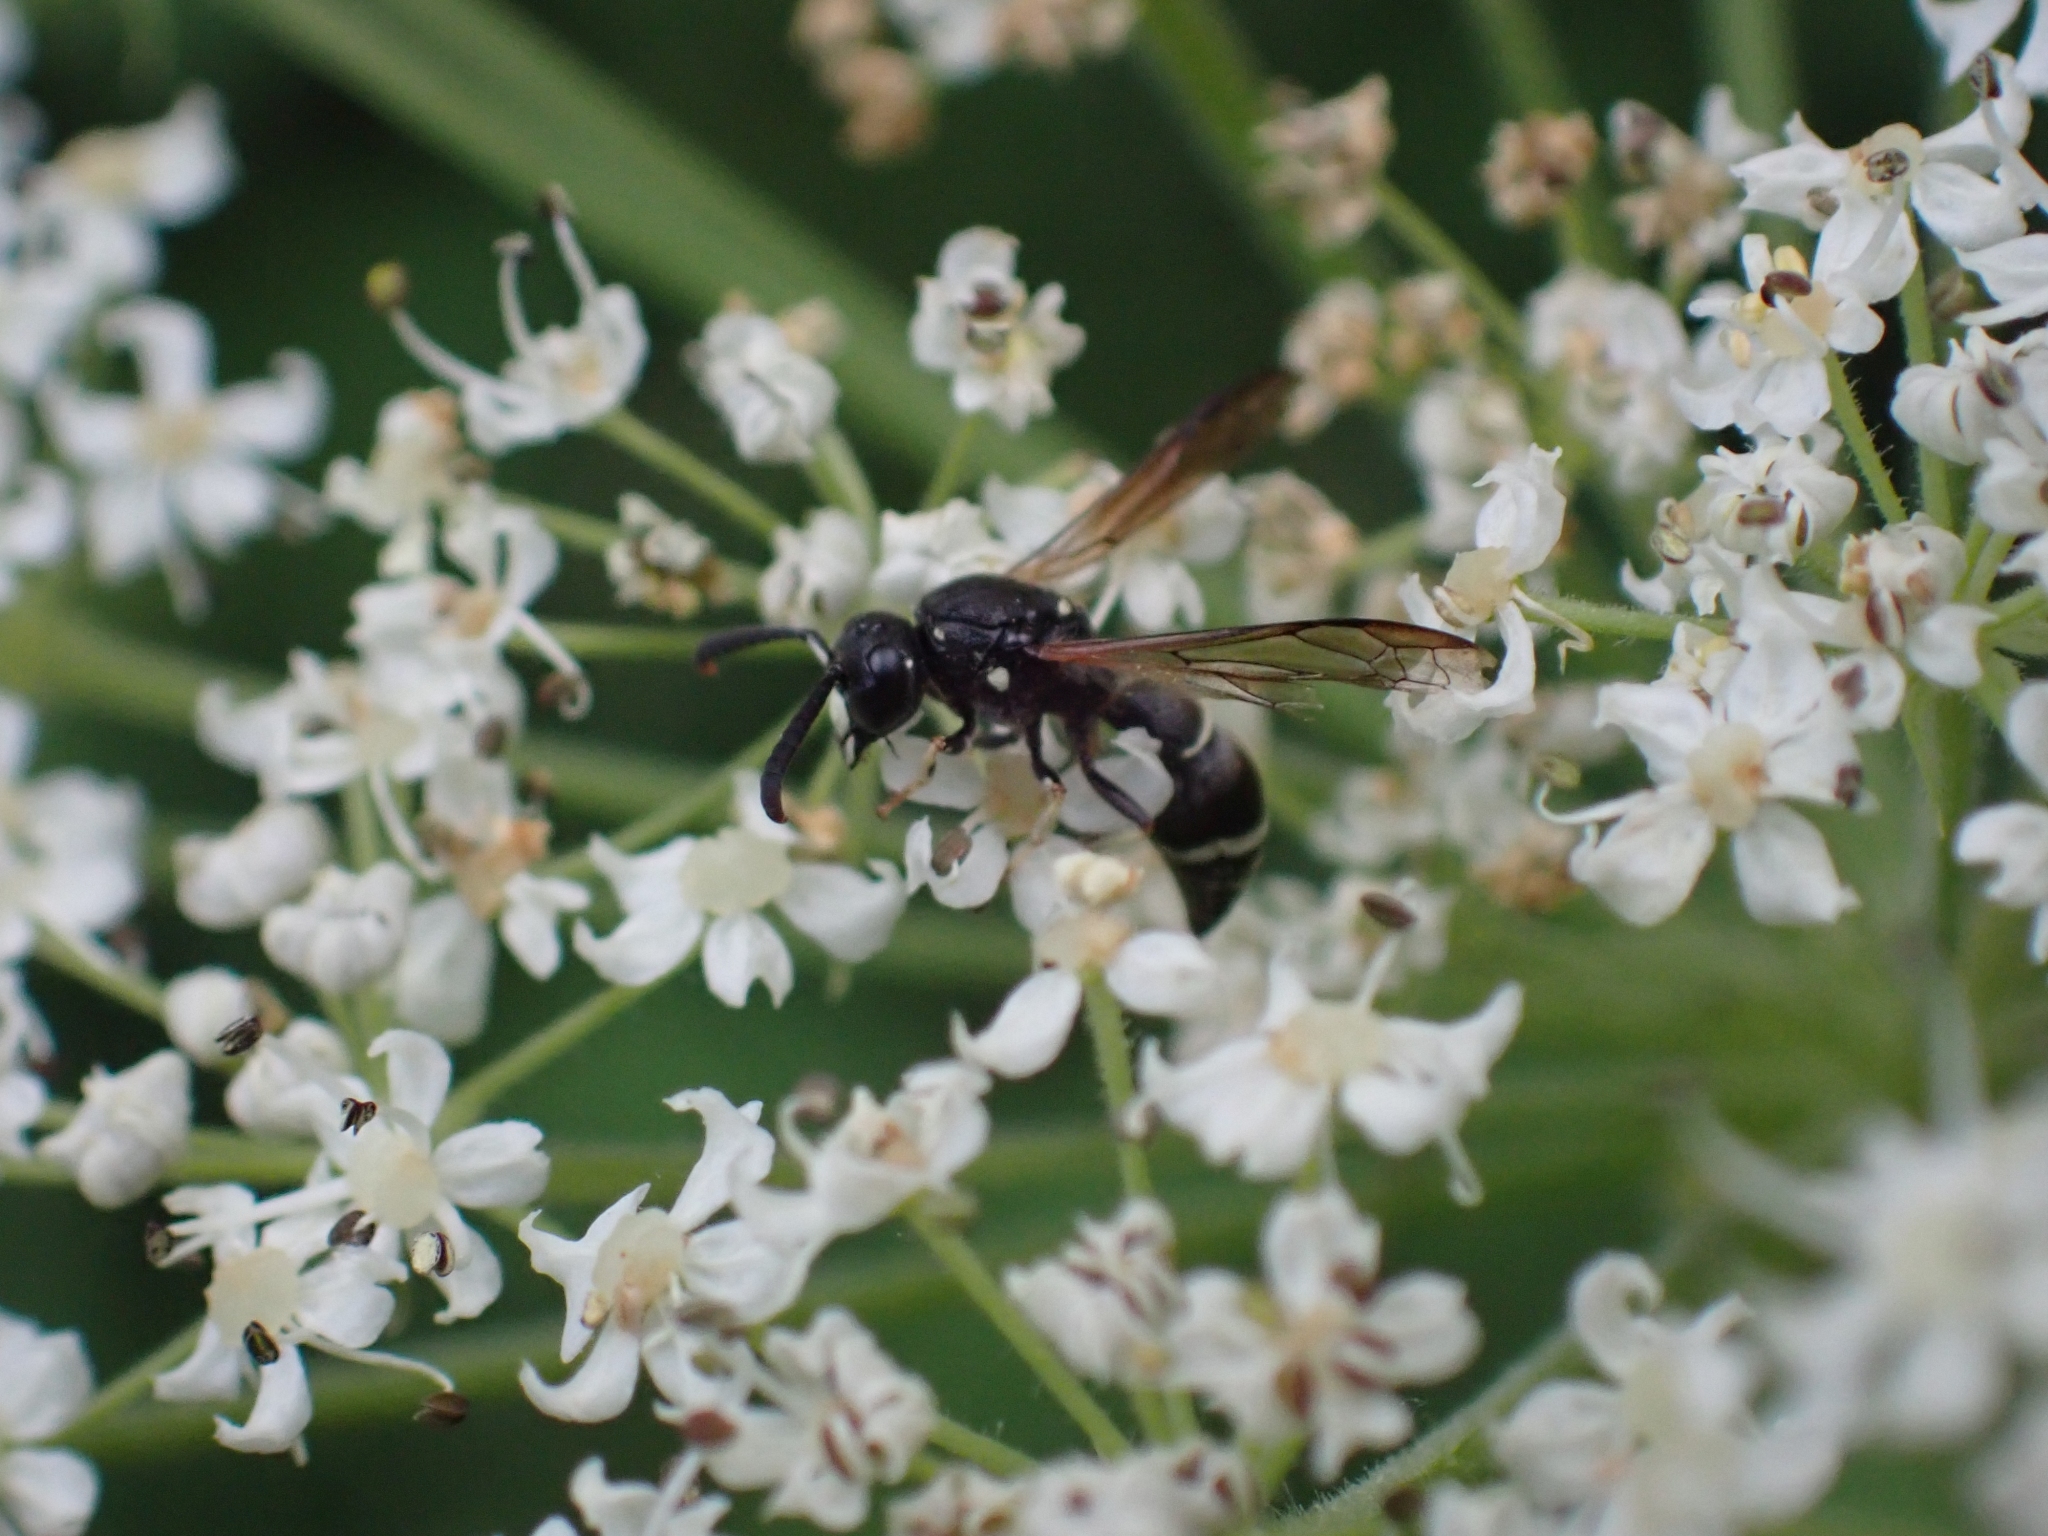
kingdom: Animalia
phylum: Arthropoda
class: Insecta
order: Hymenoptera
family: Eumenidae
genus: Symmorphus
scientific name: Symmorphus
